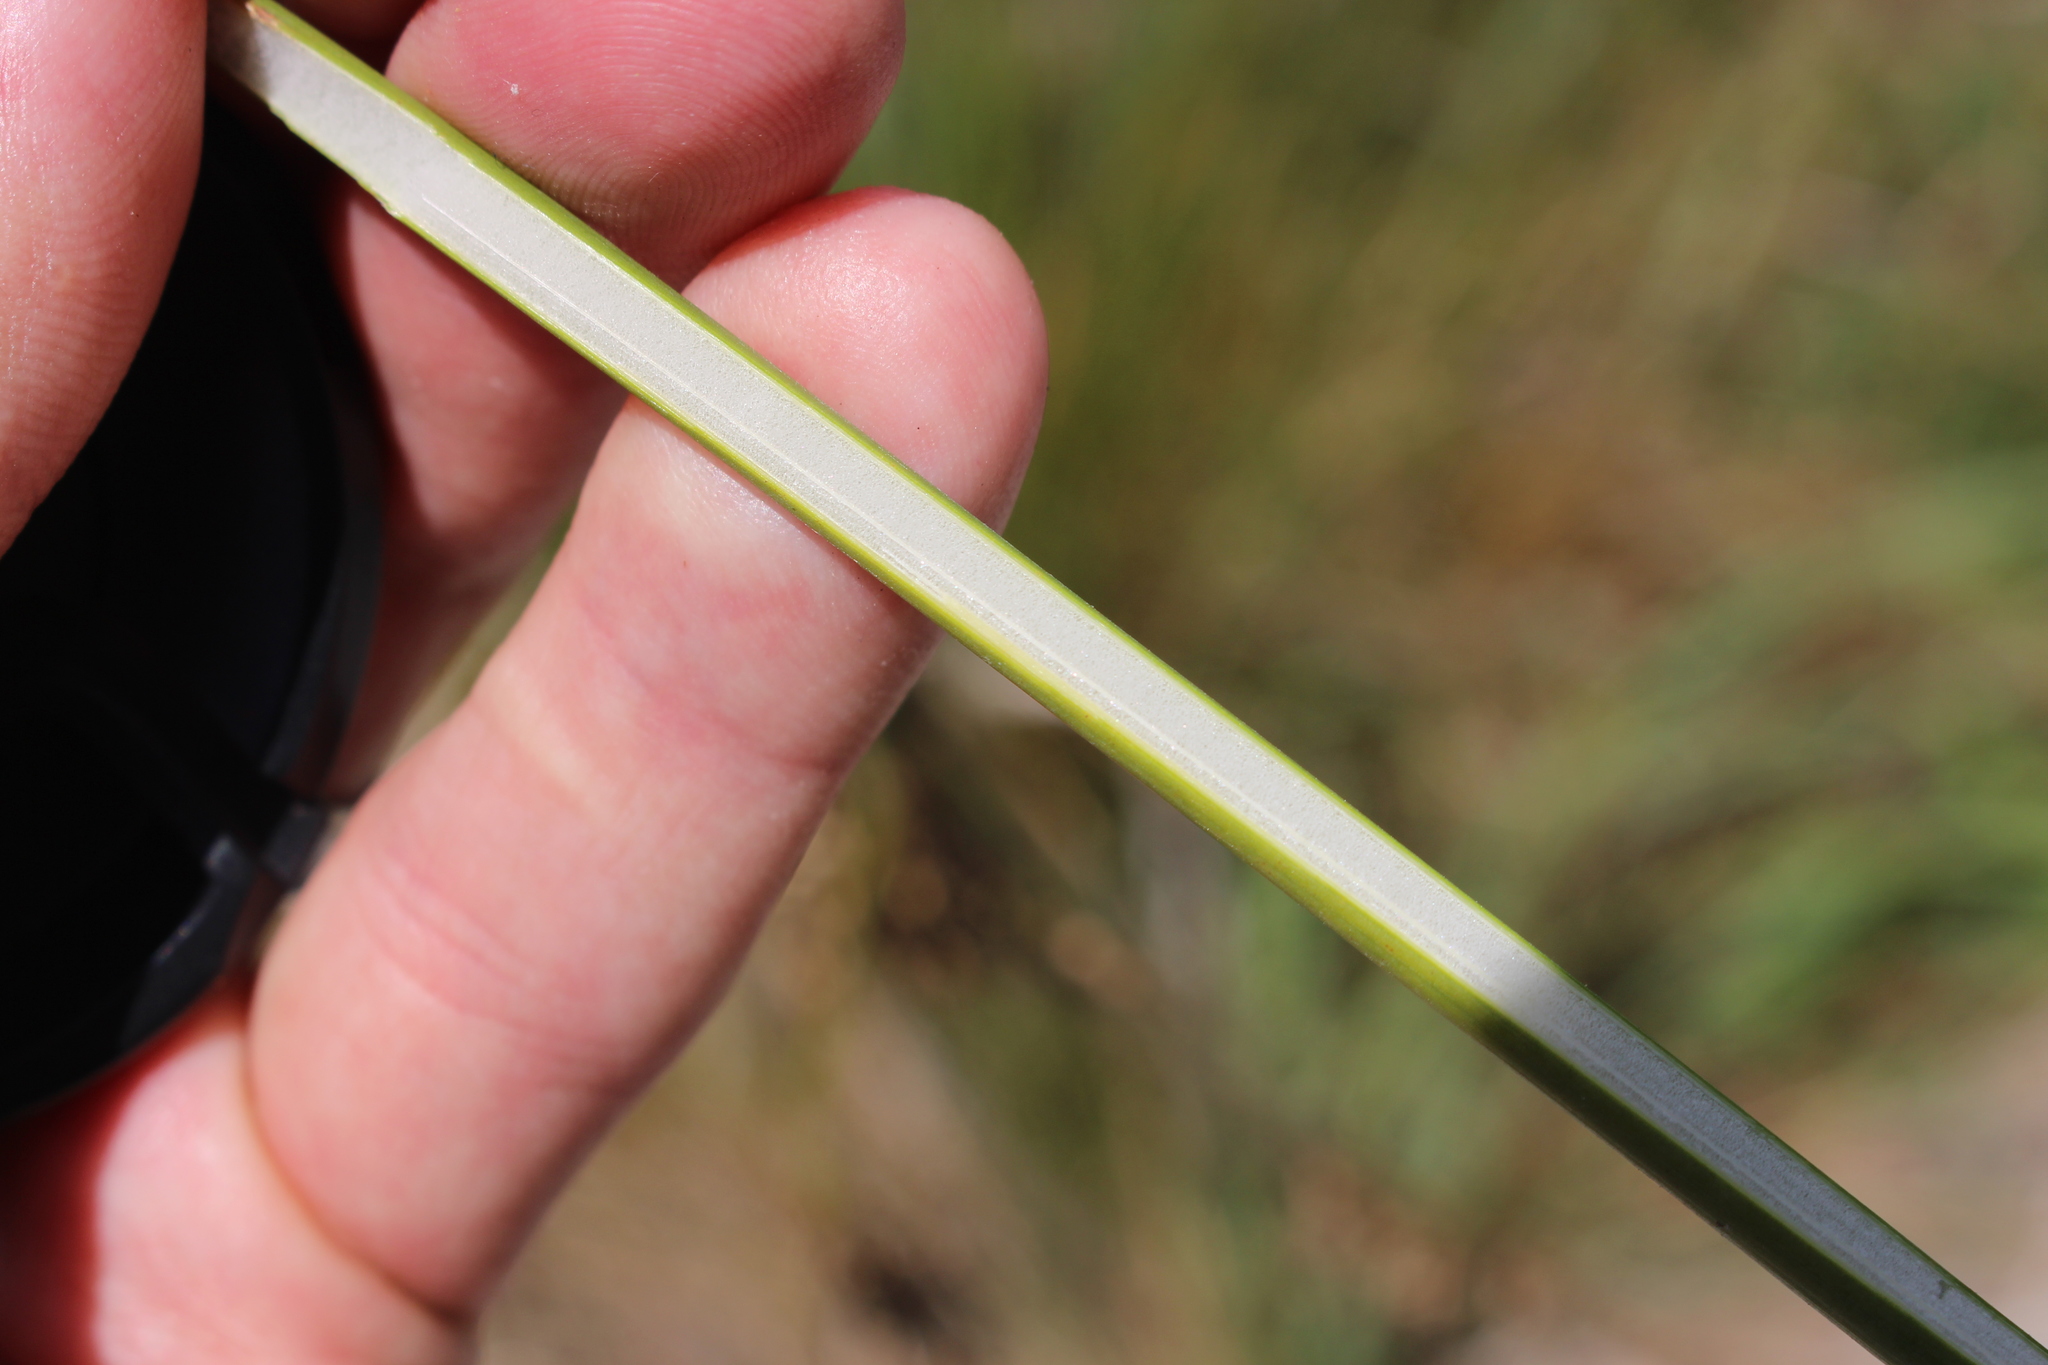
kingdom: Plantae
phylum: Tracheophyta
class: Liliopsida
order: Poales
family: Juncaceae
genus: Juncus
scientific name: Juncus pallidus
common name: Great soft-rush
